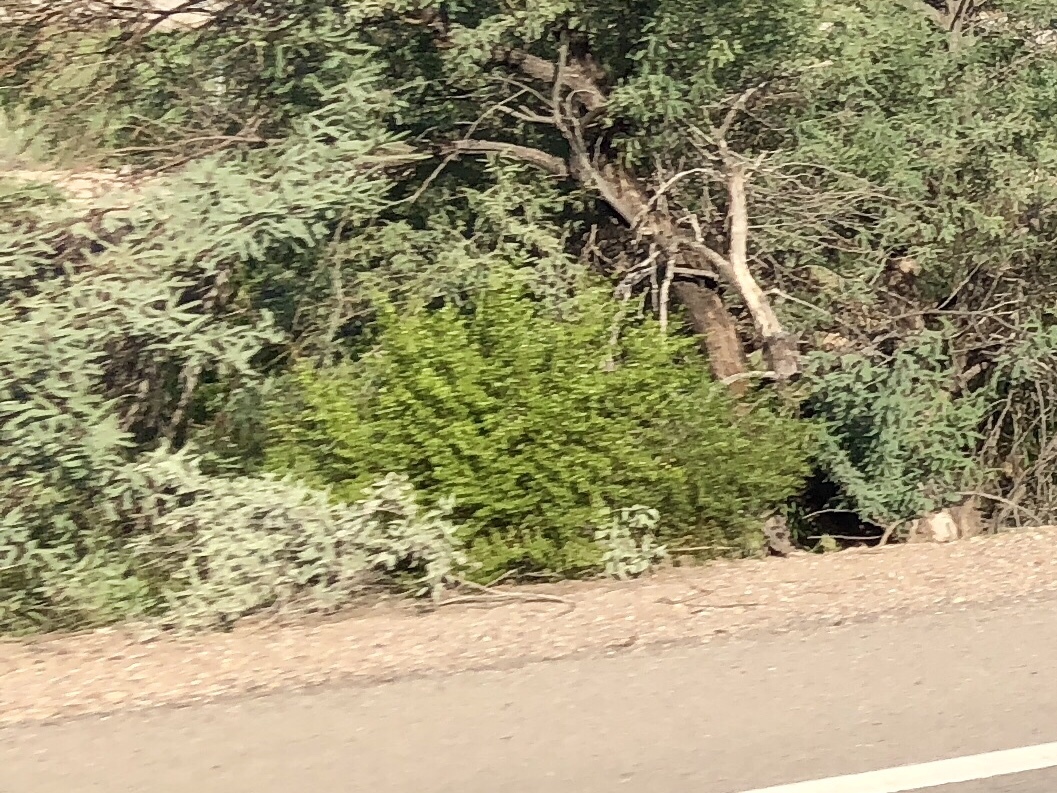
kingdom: Plantae
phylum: Tracheophyta
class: Magnoliopsida
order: Zygophyllales
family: Zygophyllaceae
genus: Larrea
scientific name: Larrea tridentata
